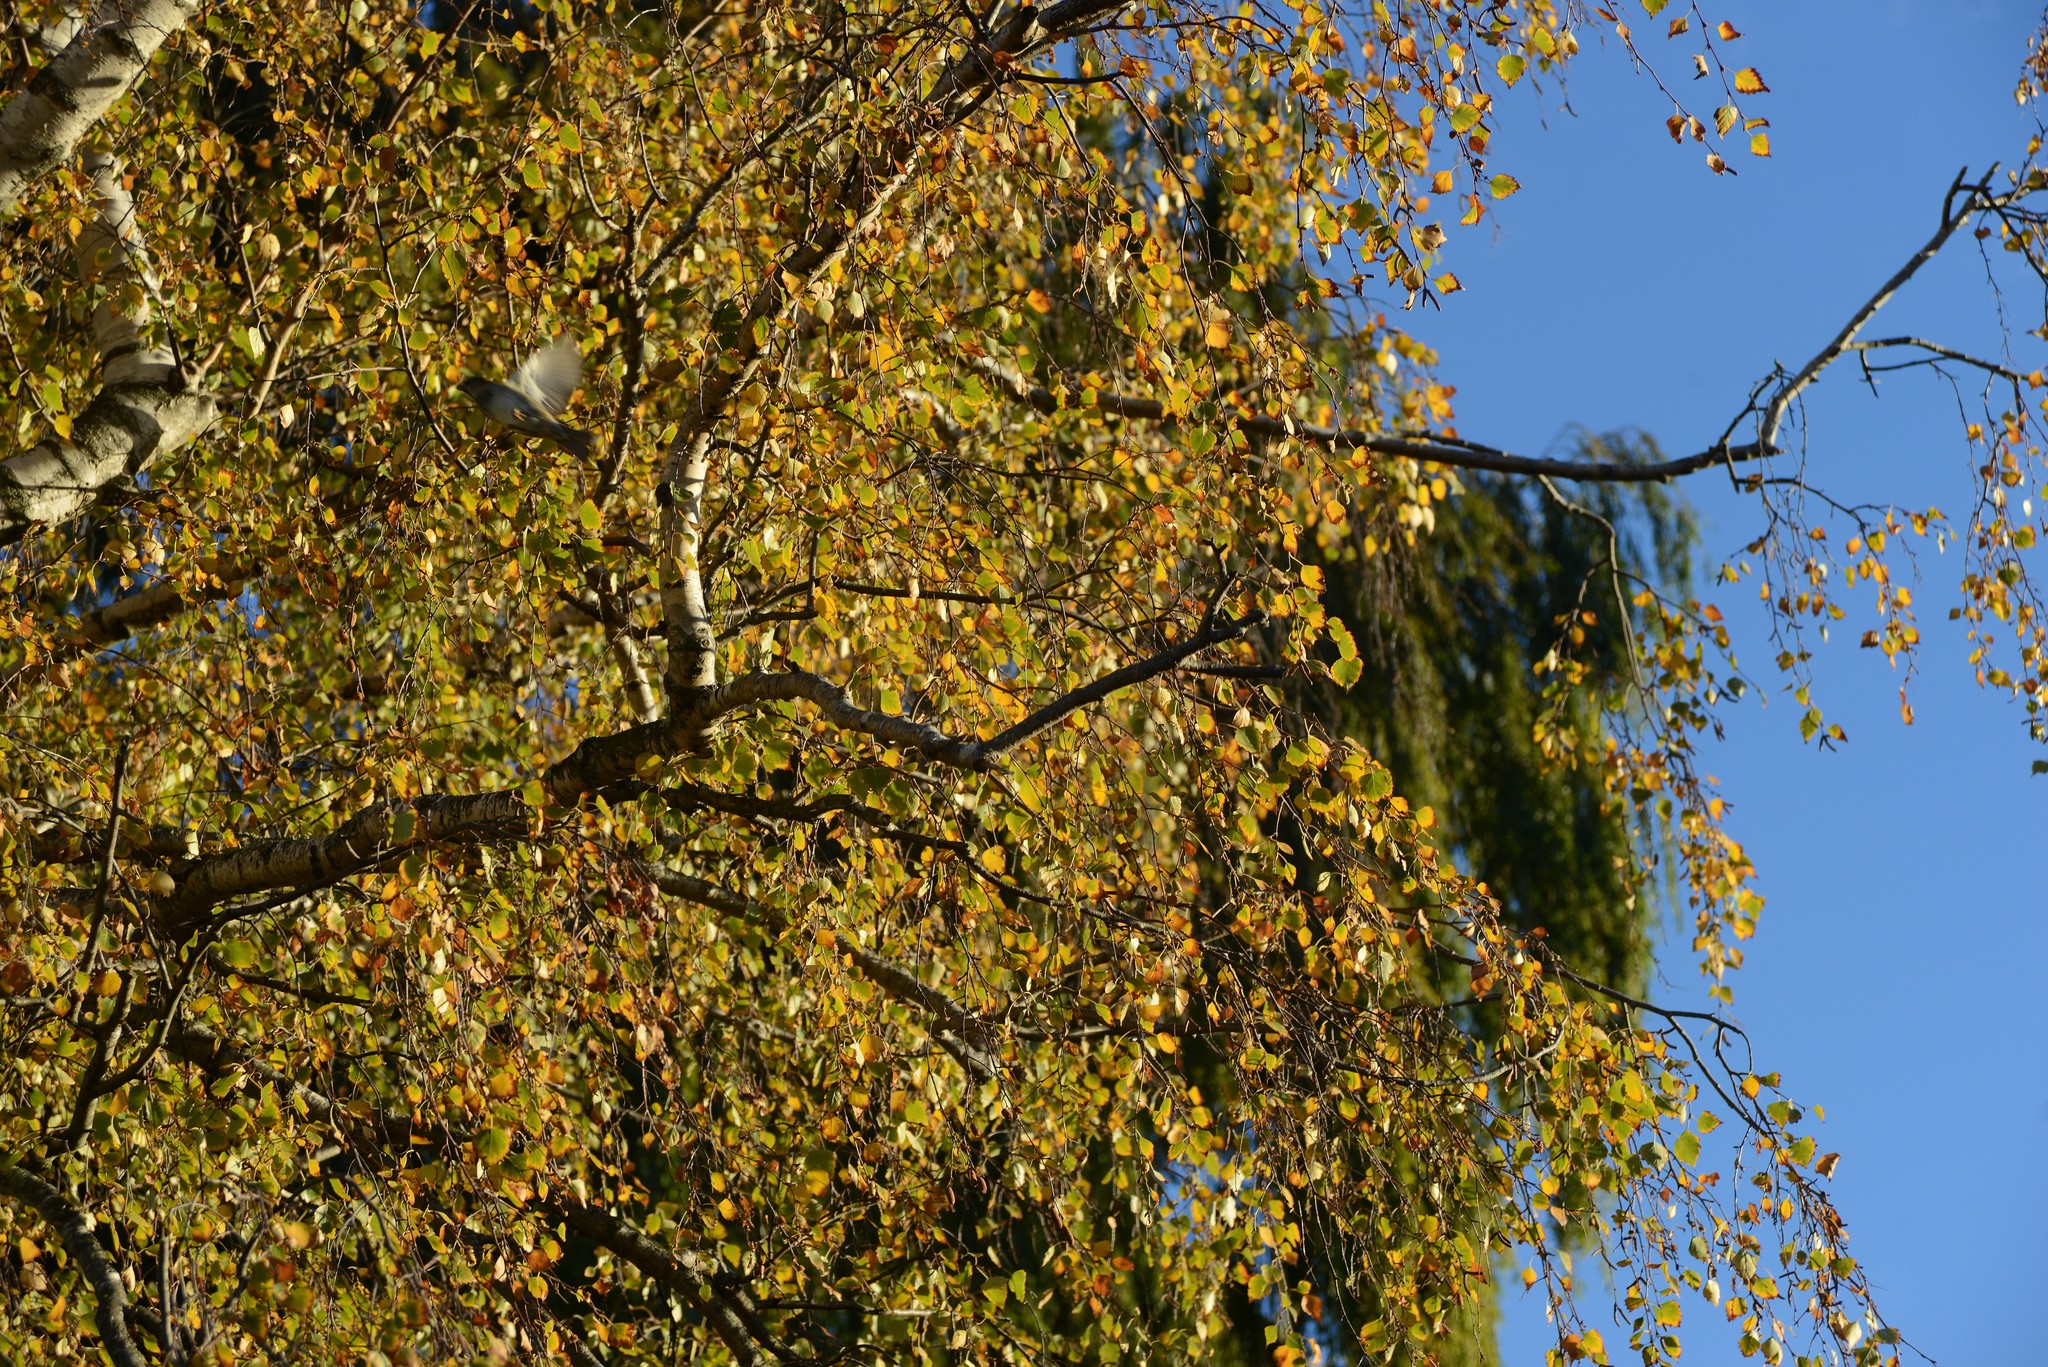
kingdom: Animalia
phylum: Chordata
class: Aves
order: Passeriformes
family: Passeridae
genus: Passer
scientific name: Passer domesticus
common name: House sparrow
